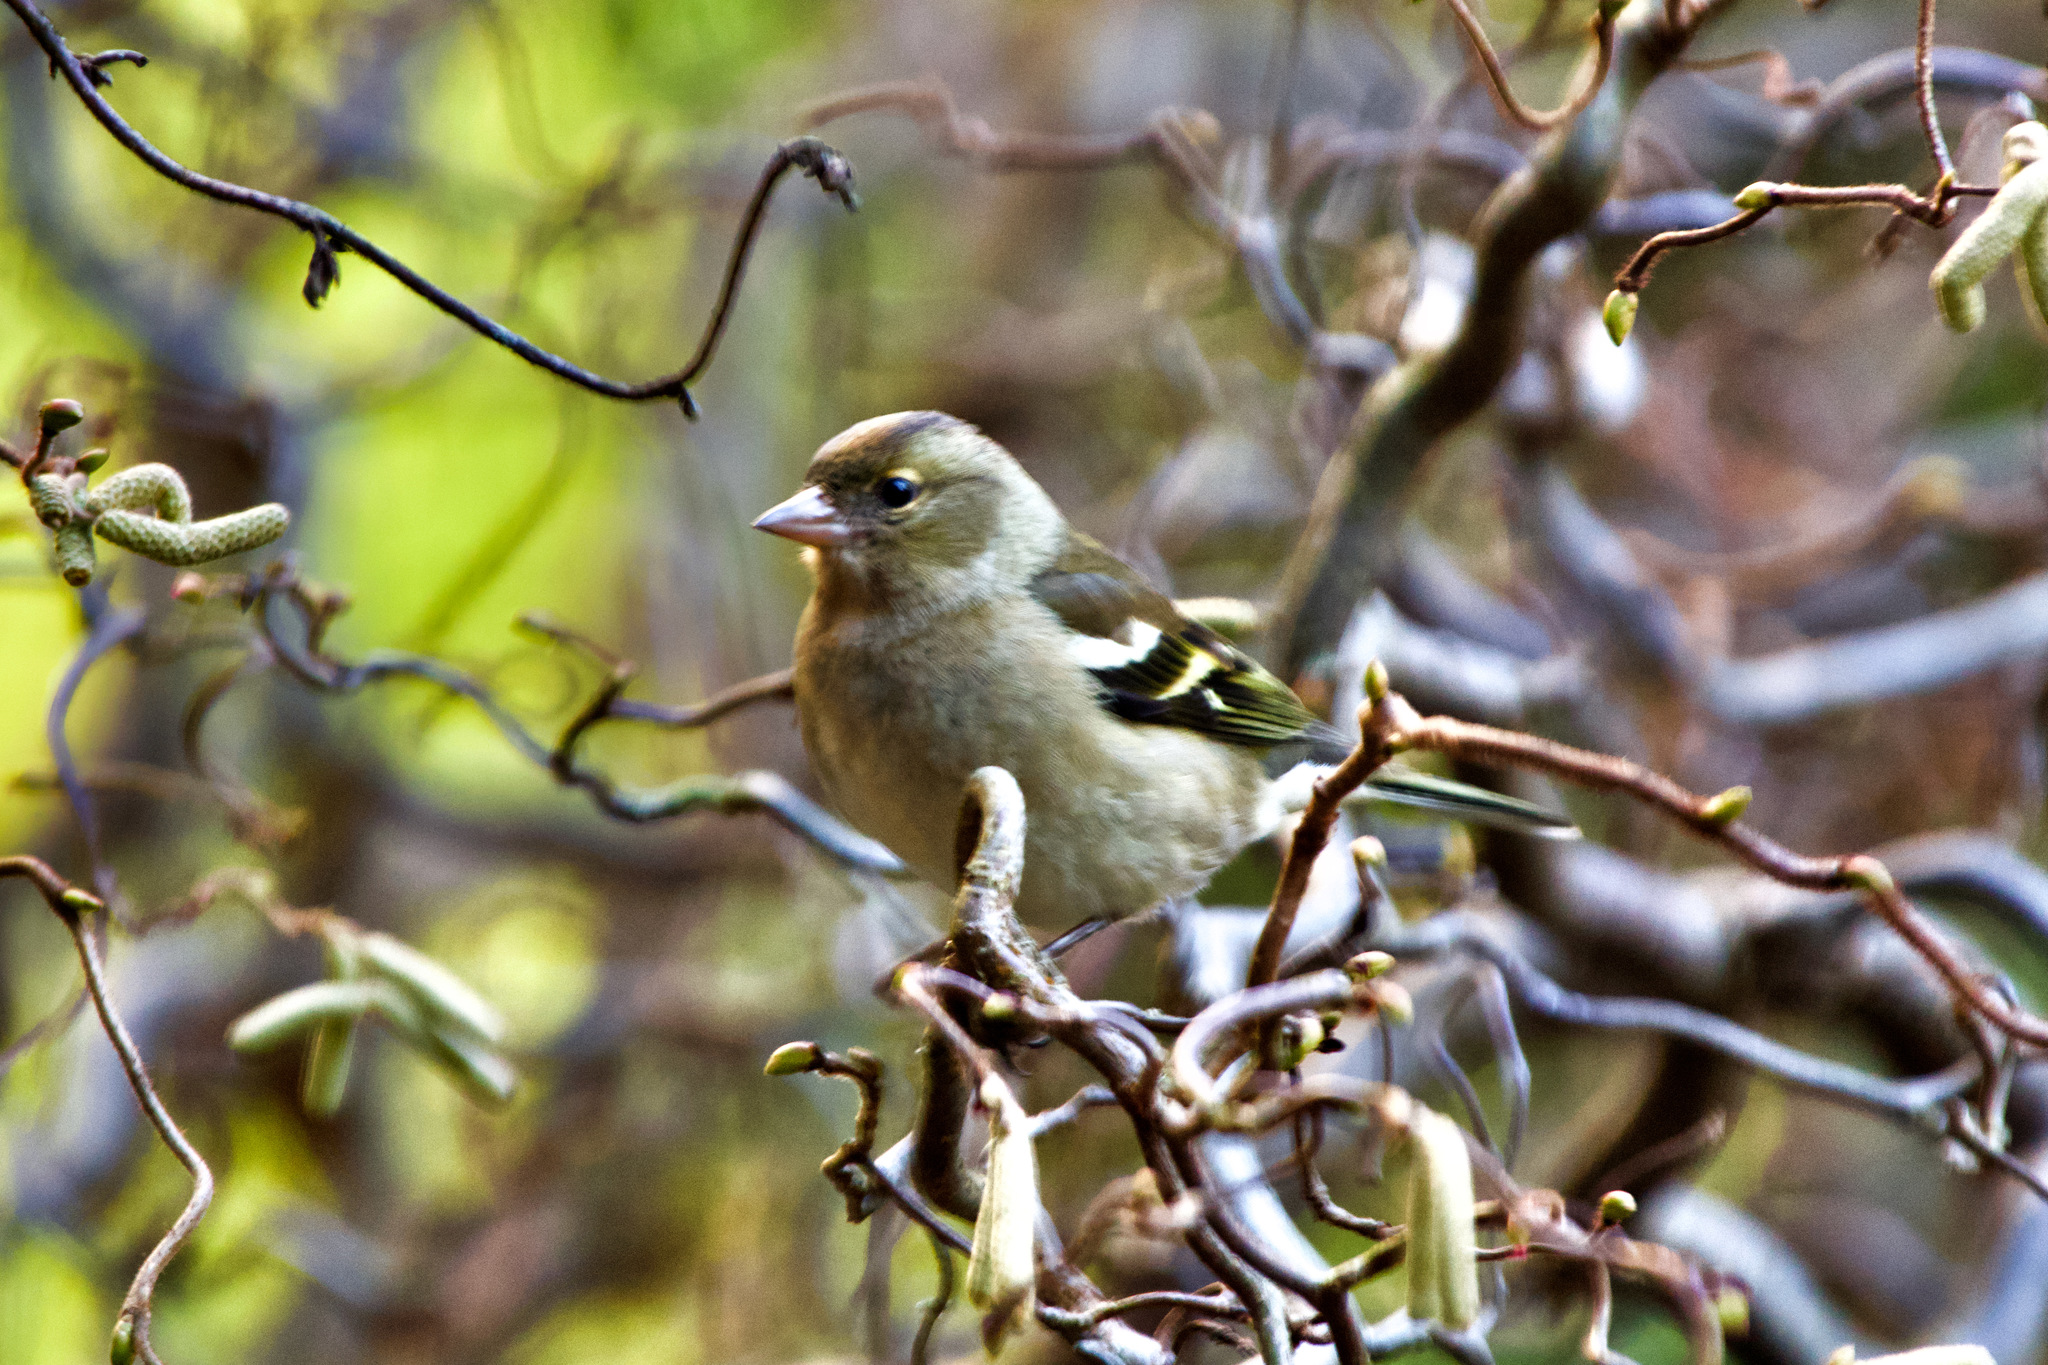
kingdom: Animalia
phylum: Chordata
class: Aves
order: Passeriformes
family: Fringillidae
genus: Fringilla
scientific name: Fringilla coelebs
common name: Common chaffinch
